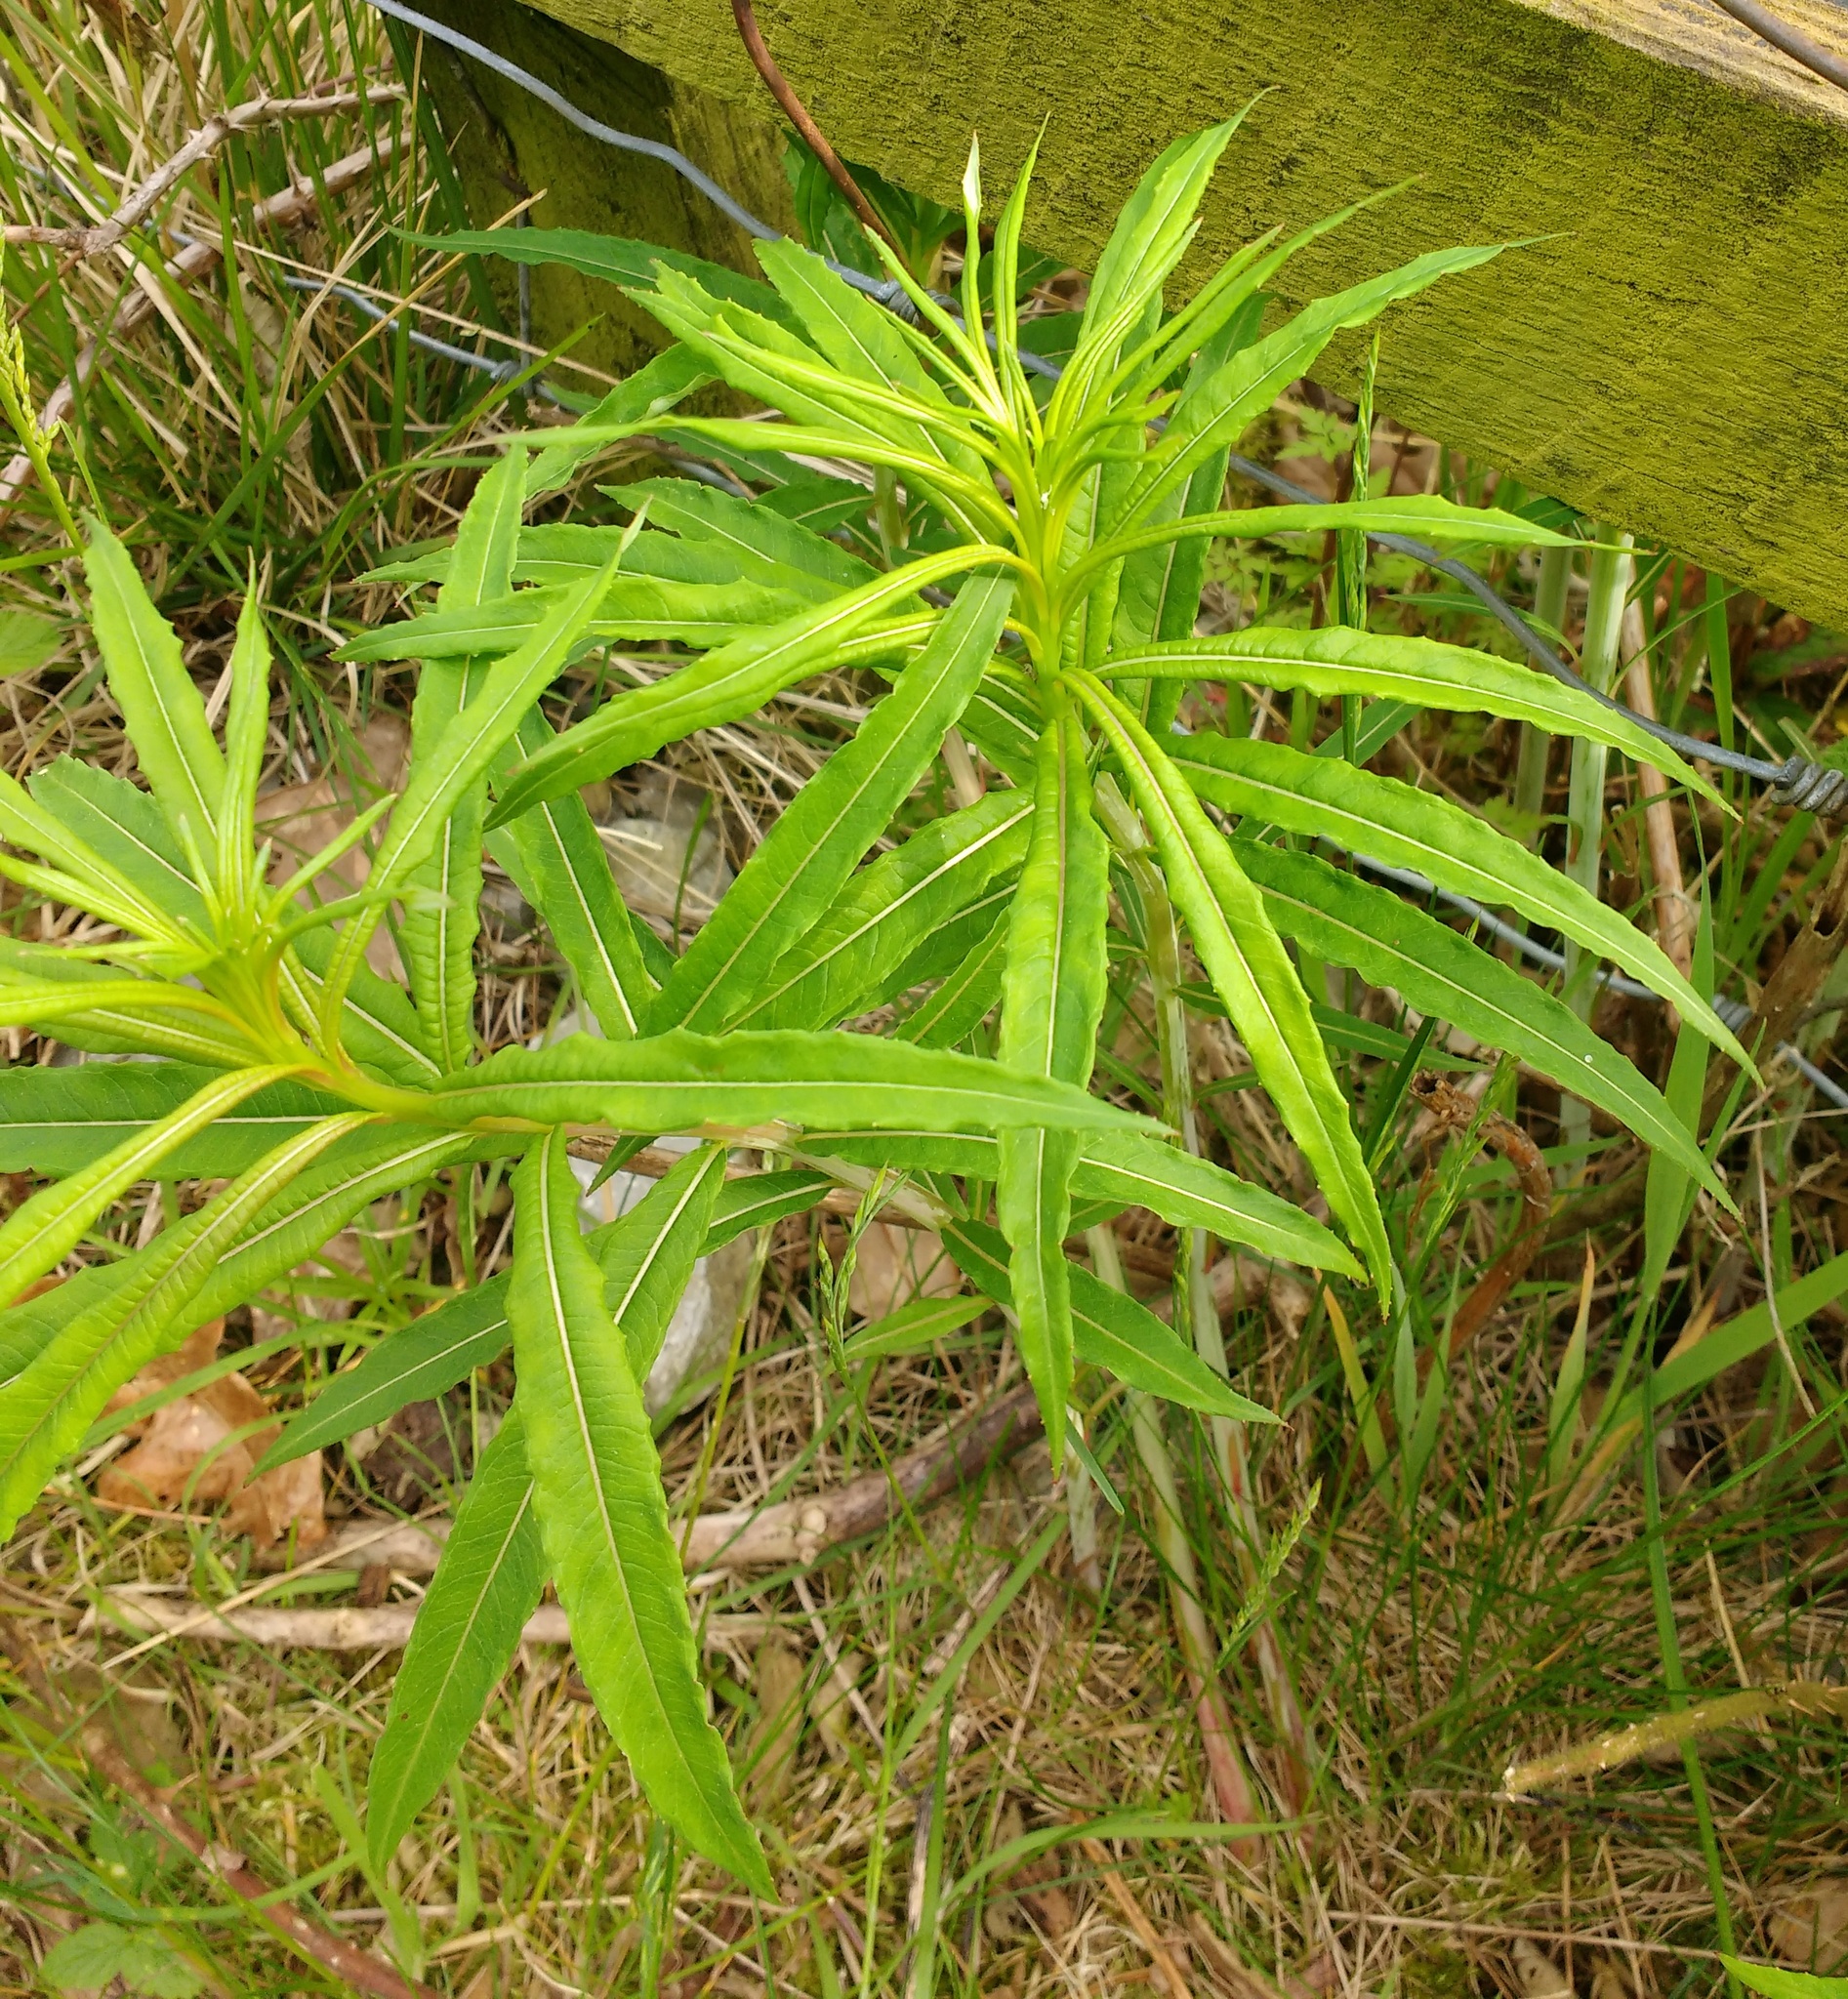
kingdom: Plantae
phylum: Tracheophyta
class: Magnoliopsida
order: Myrtales
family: Onagraceae
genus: Chamaenerion
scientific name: Chamaenerion angustifolium
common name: Fireweed
